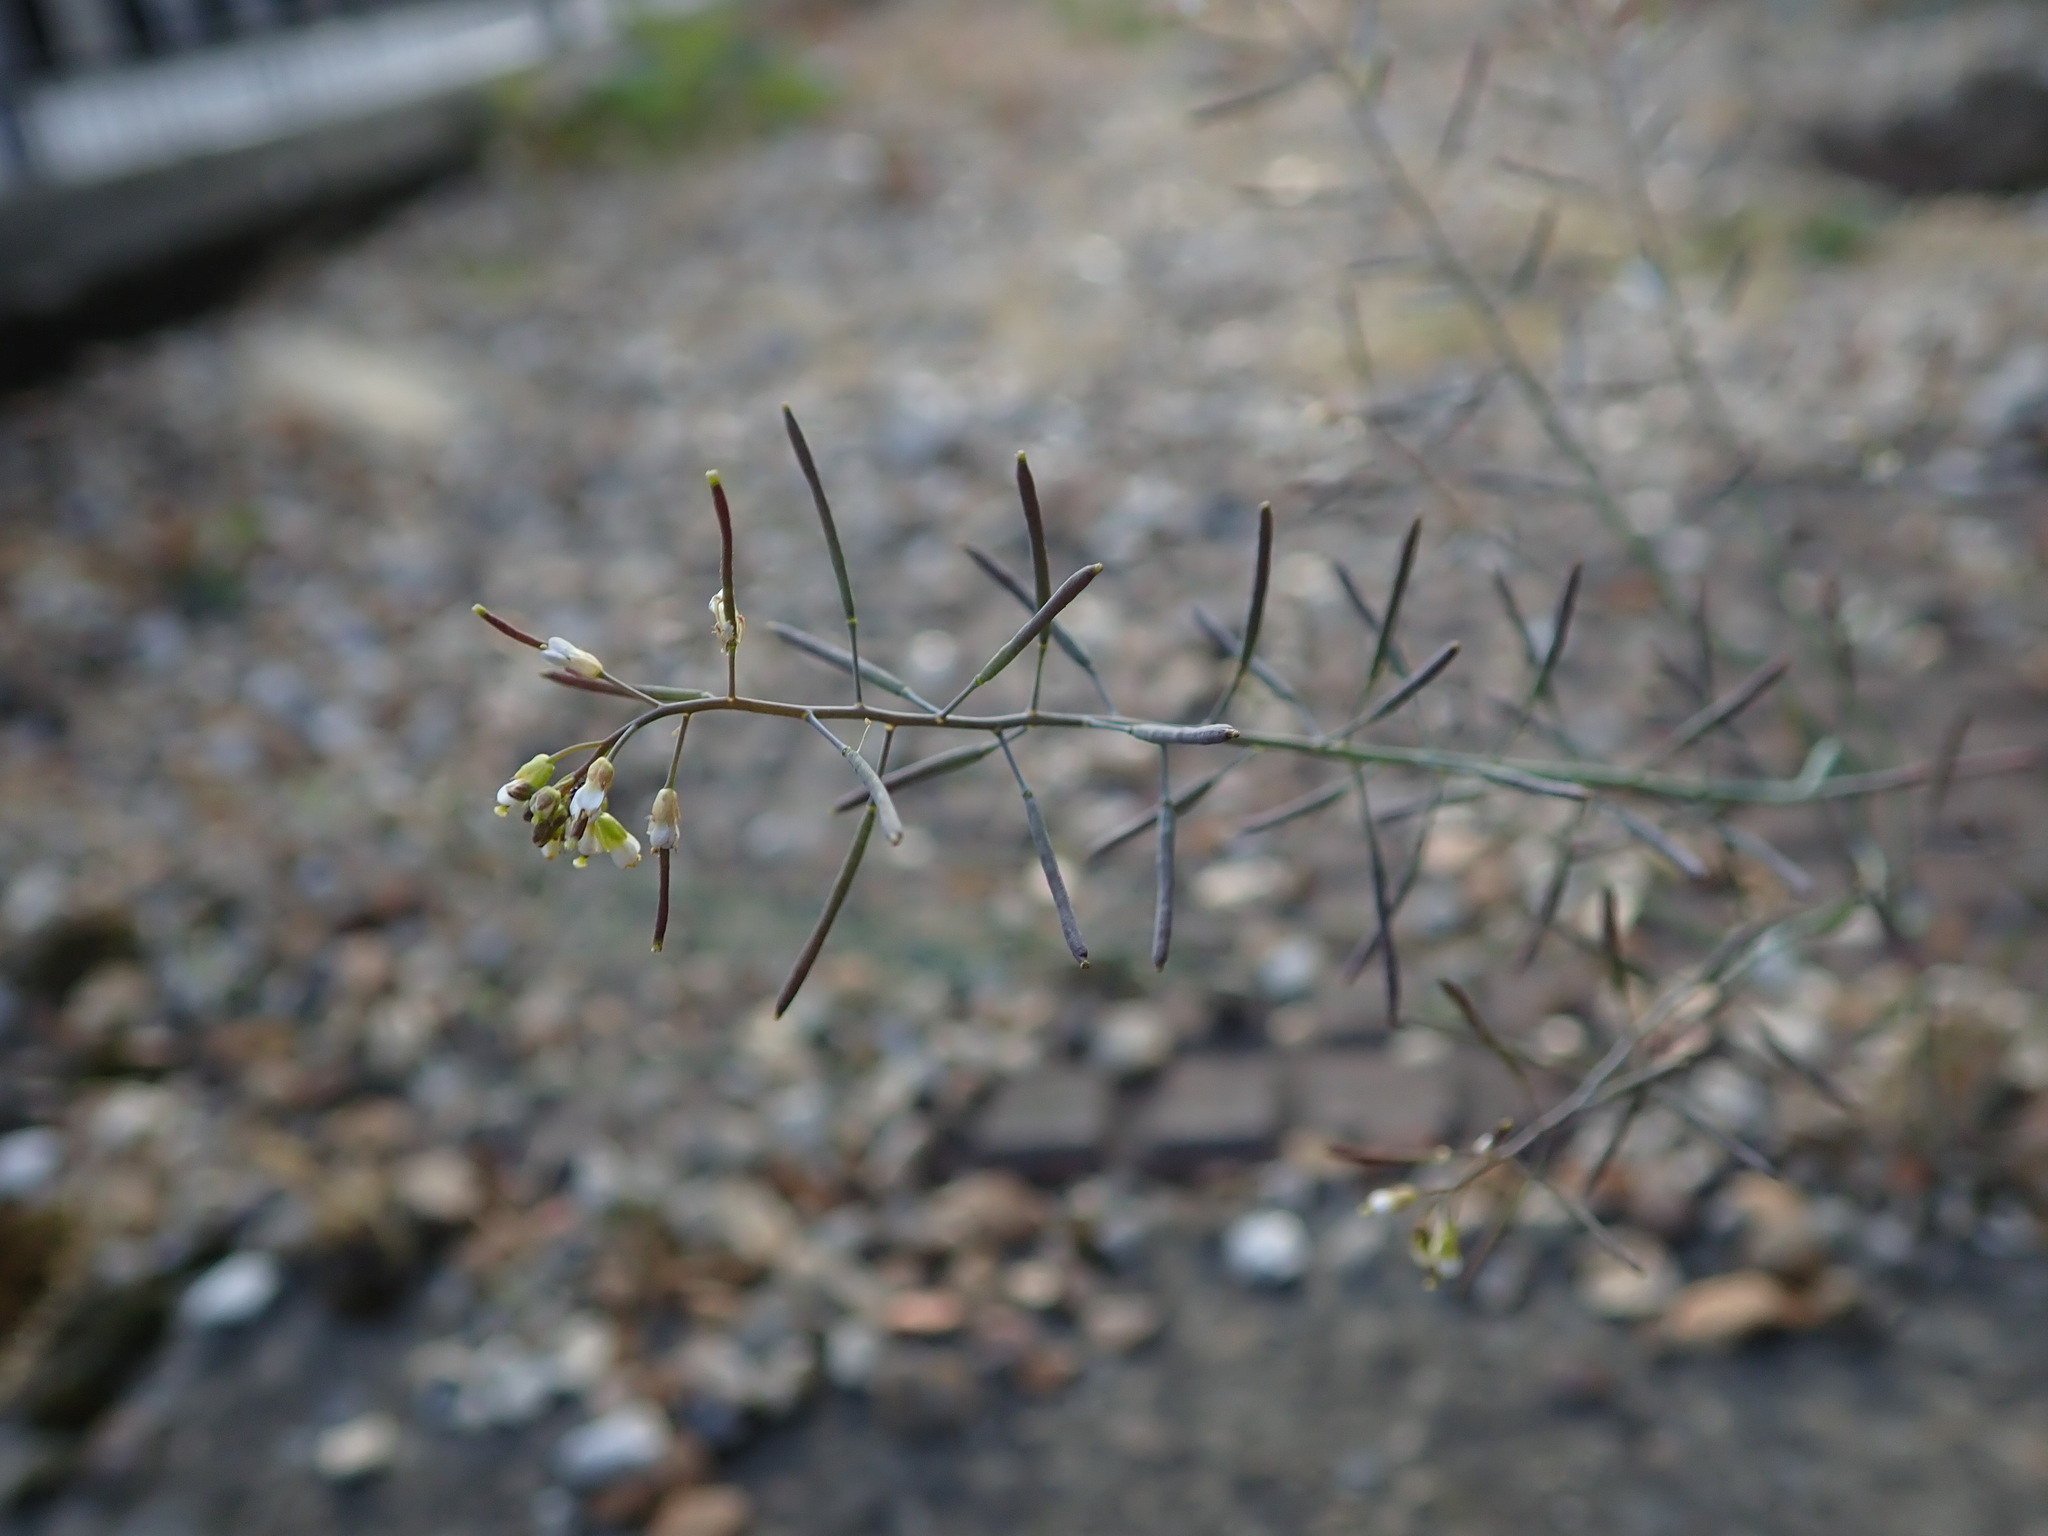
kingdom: Plantae
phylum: Tracheophyta
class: Magnoliopsida
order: Brassicales
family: Brassicaceae
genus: Arabidopsis
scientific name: Arabidopsis thaliana
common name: Thale cress
